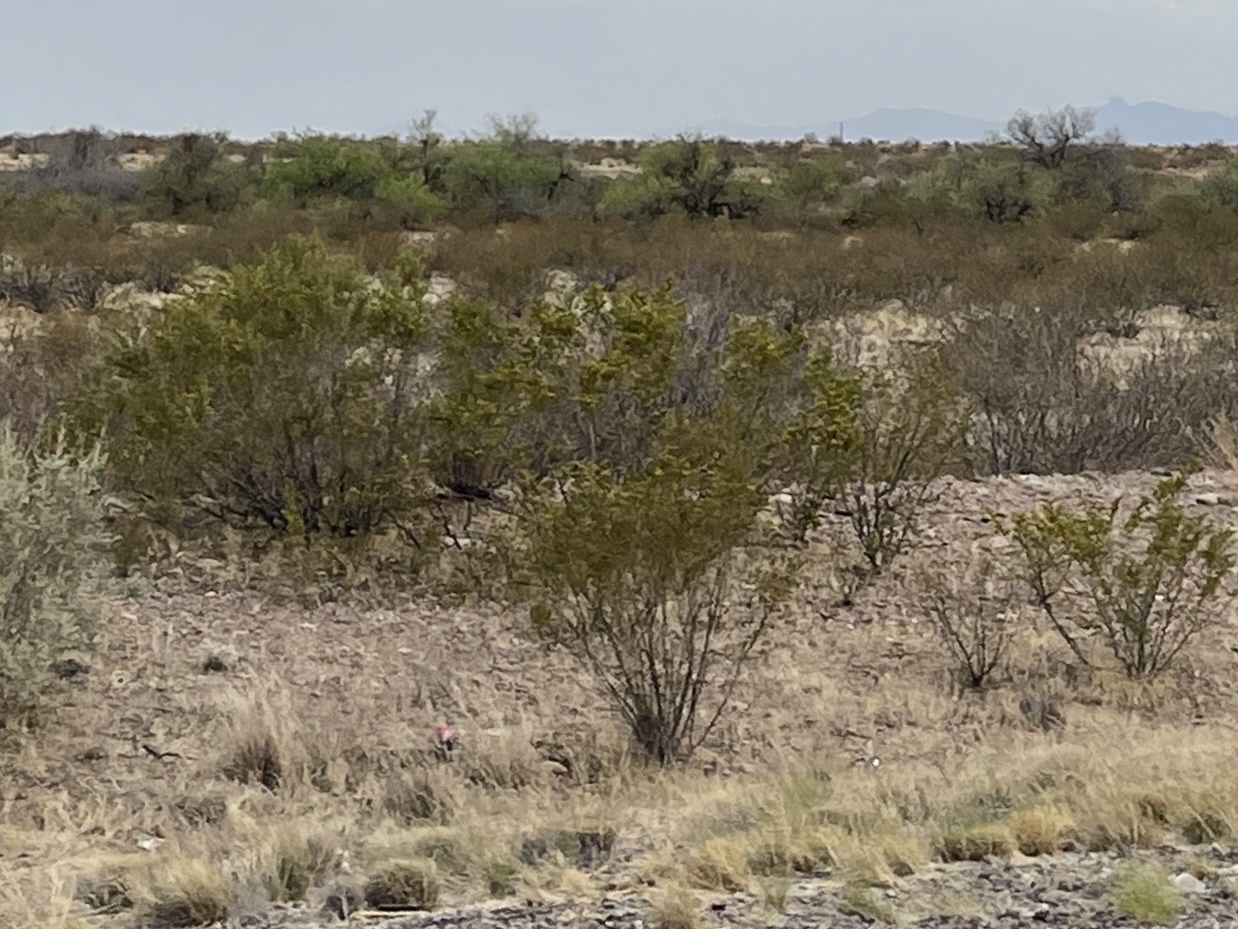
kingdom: Plantae
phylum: Tracheophyta
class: Magnoliopsida
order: Zygophyllales
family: Zygophyllaceae
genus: Larrea
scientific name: Larrea tridentata
